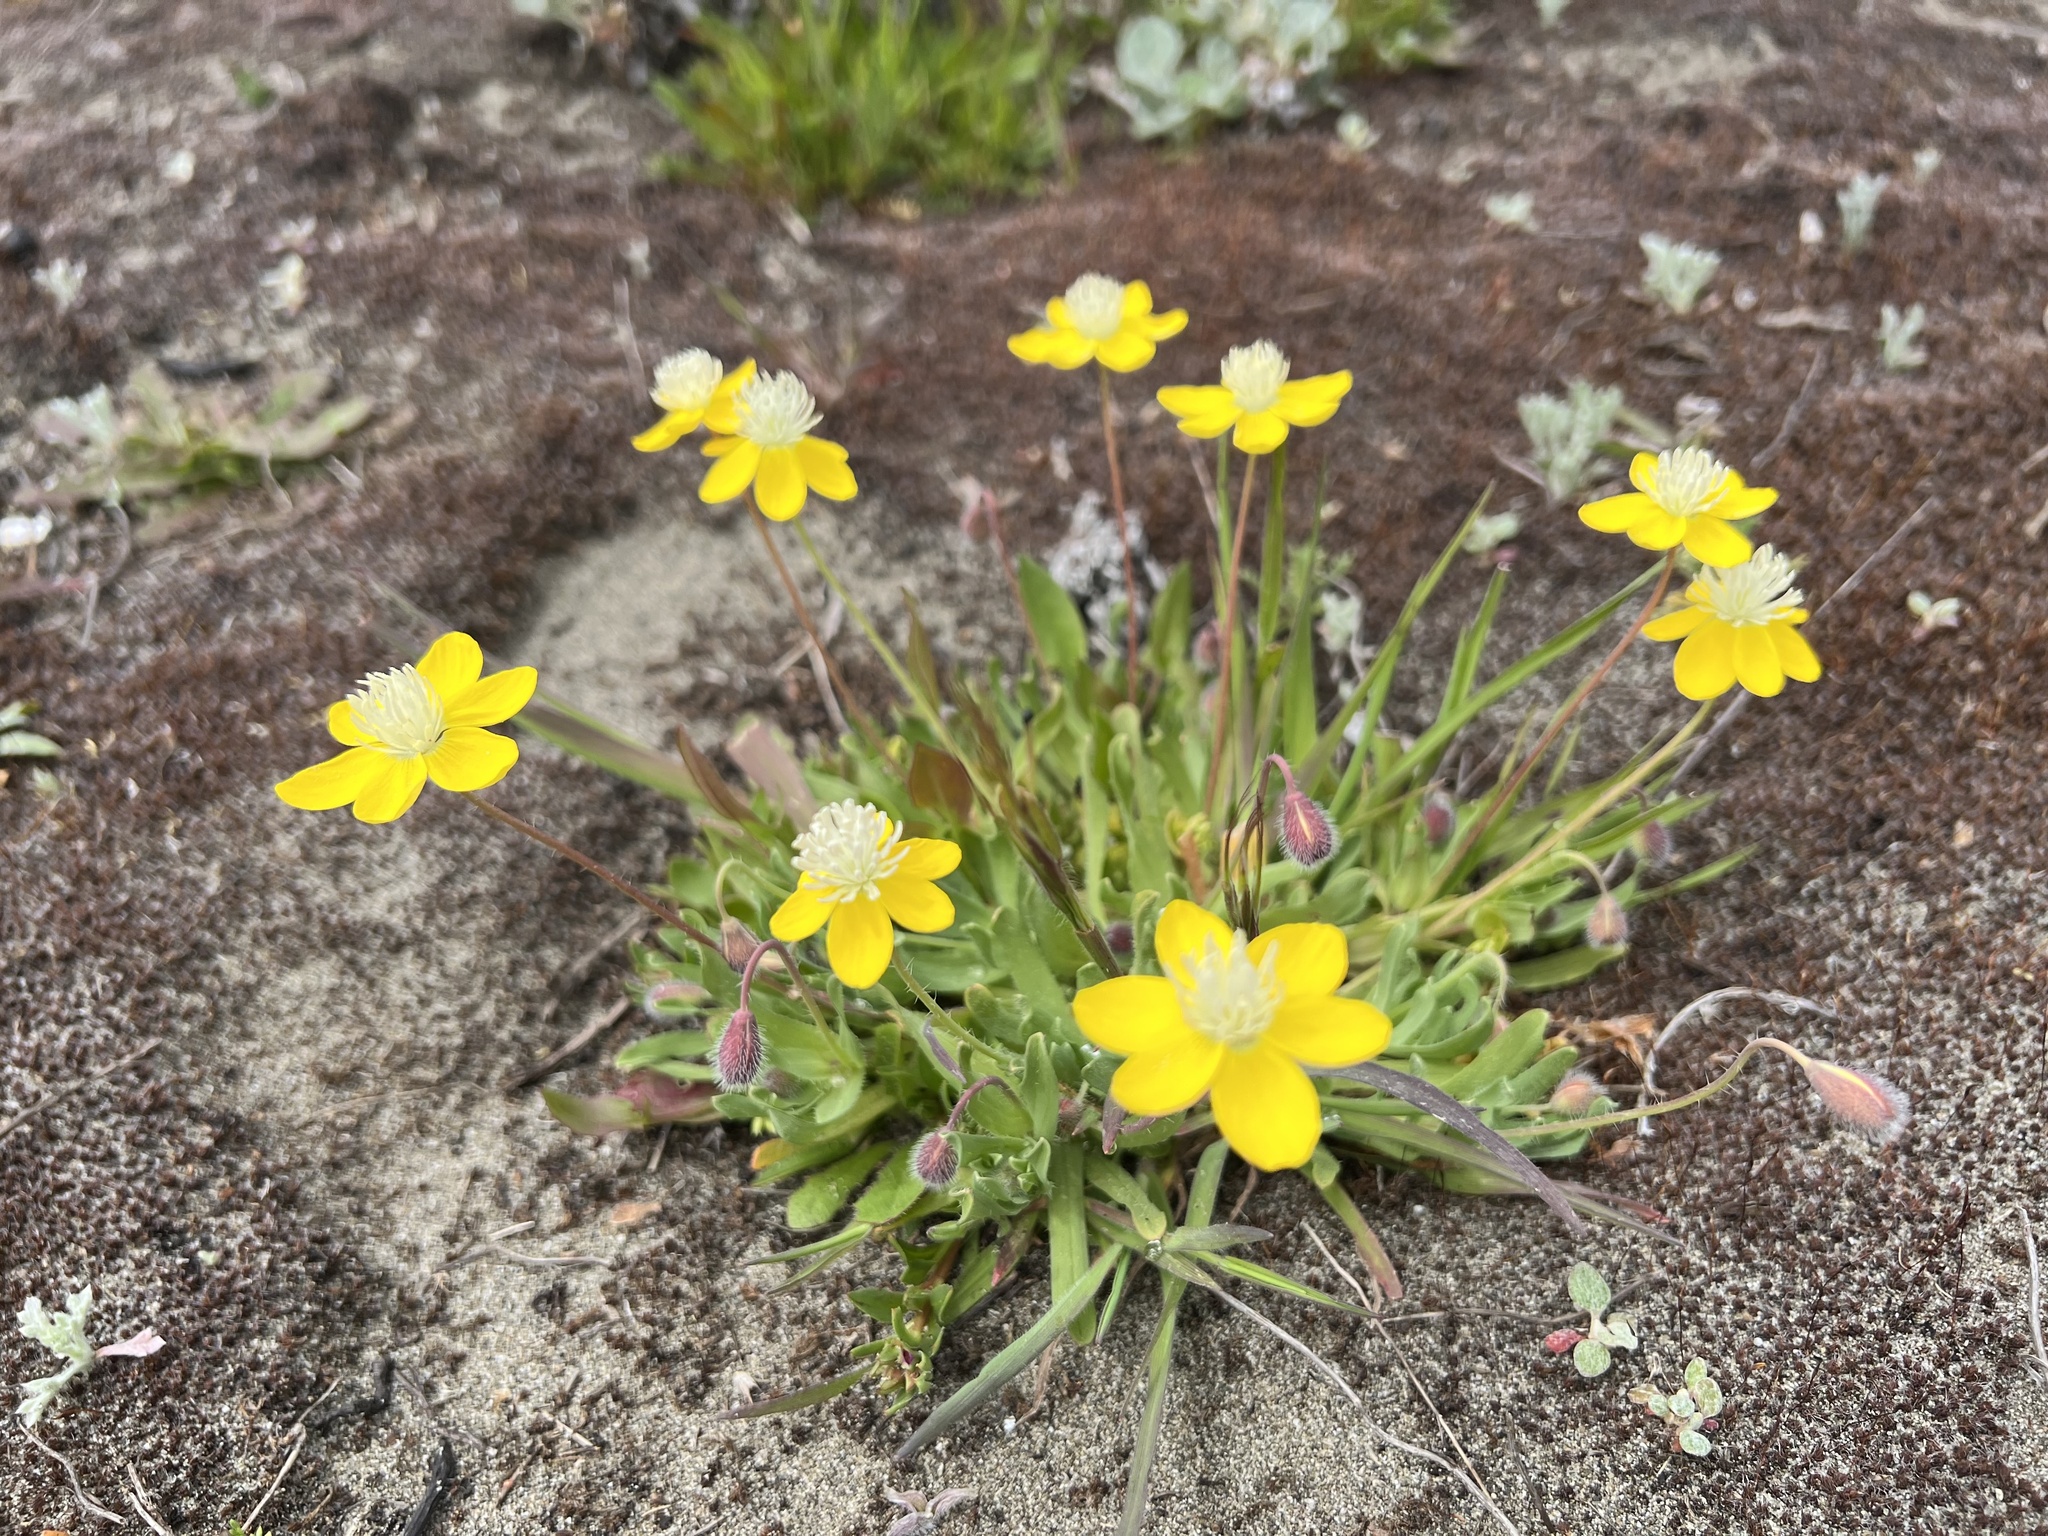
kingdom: Plantae
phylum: Tracheophyta
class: Magnoliopsida
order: Ranunculales
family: Papaveraceae
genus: Platystemon
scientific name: Platystemon californicus
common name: Cream-cups
